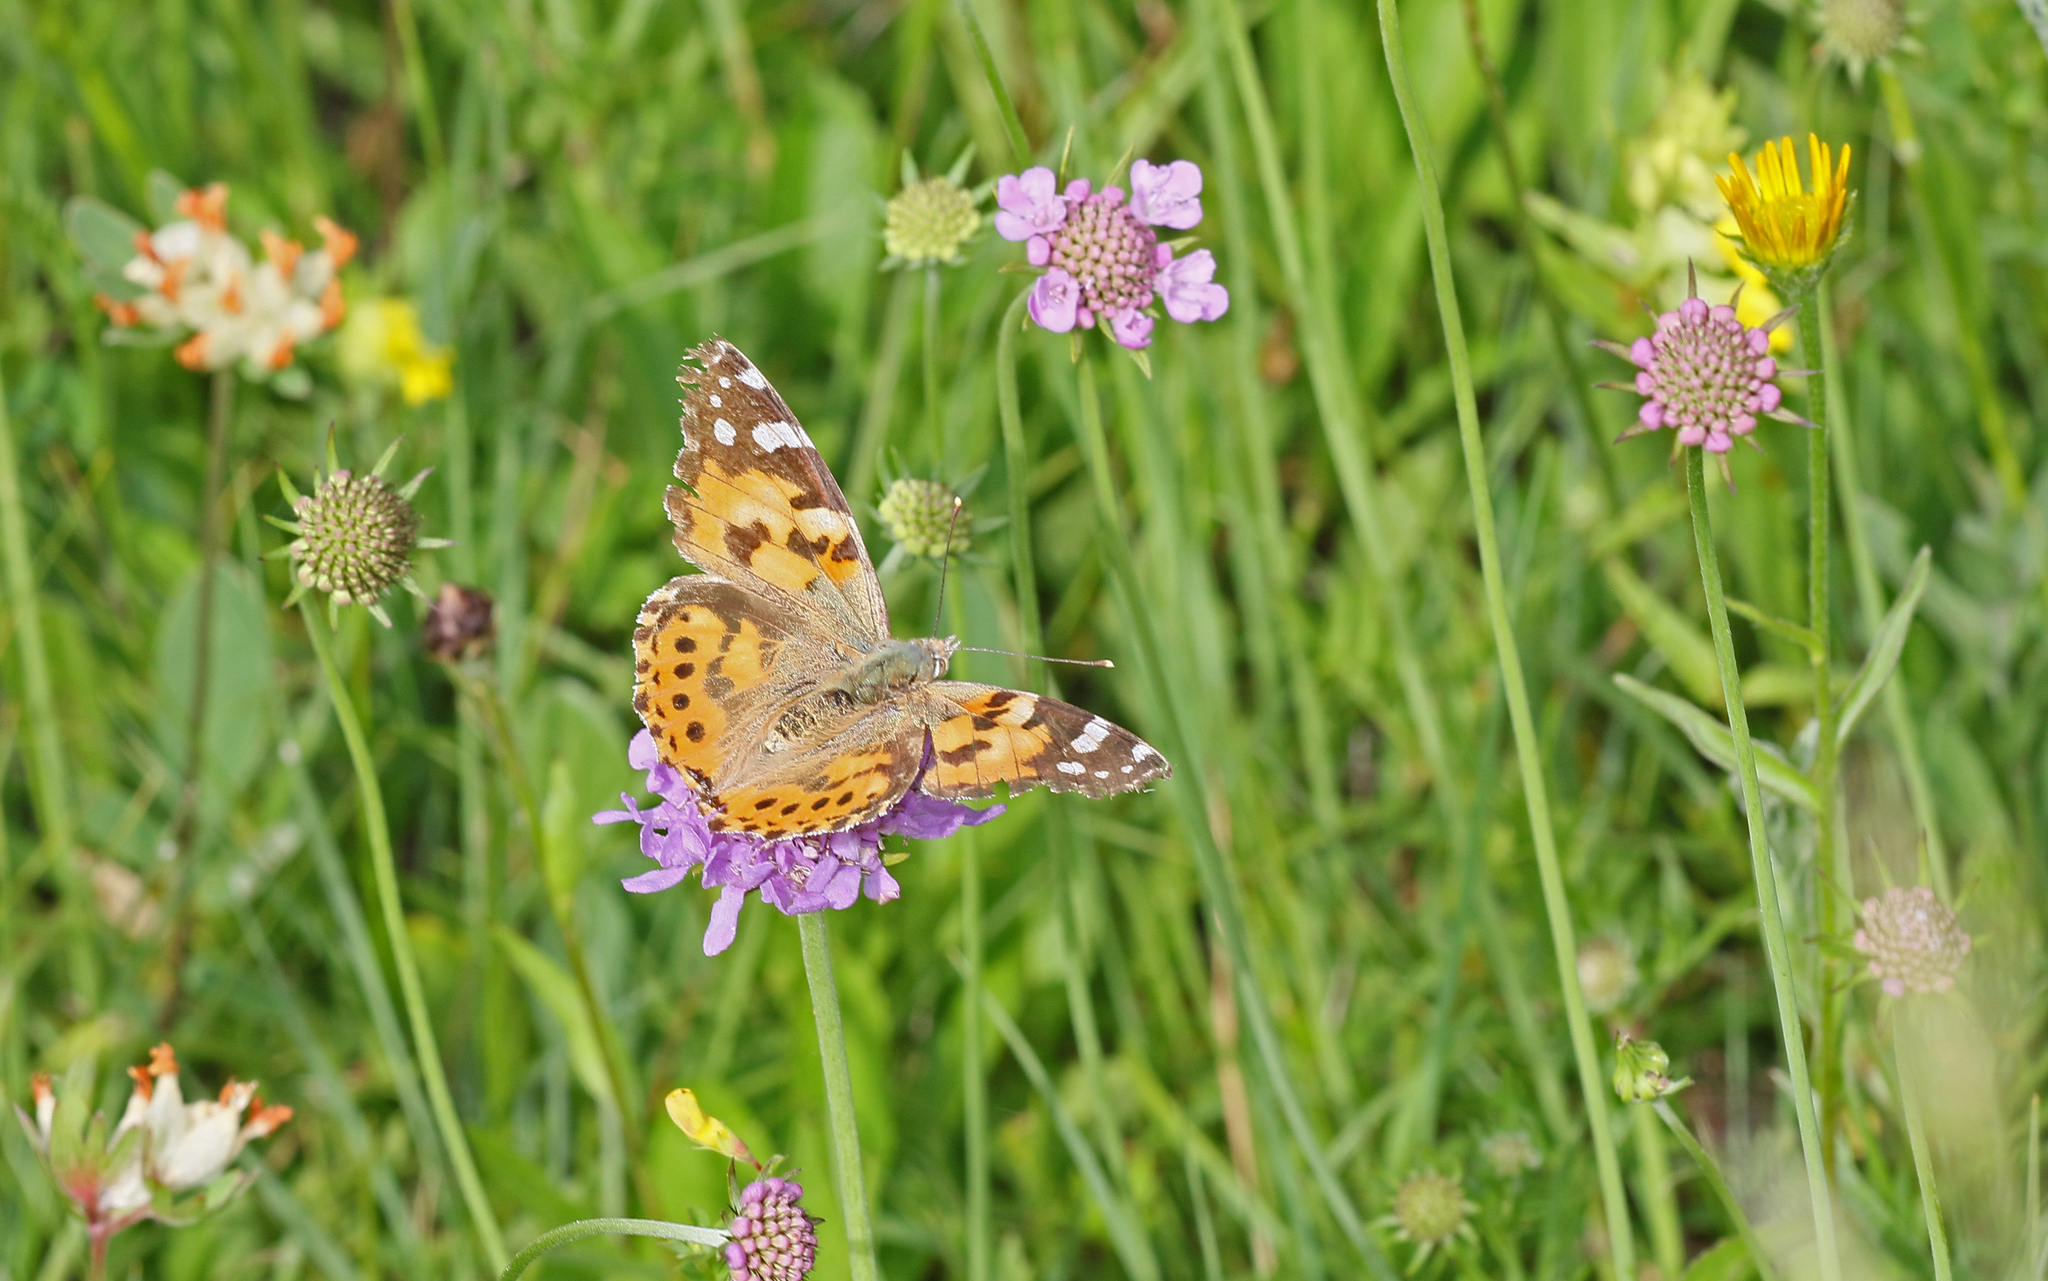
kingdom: Animalia
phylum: Arthropoda
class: Insecta
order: Lepidoptera
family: Nymphalidae
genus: Vanessa
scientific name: Vanessa cardui
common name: Painted lady
